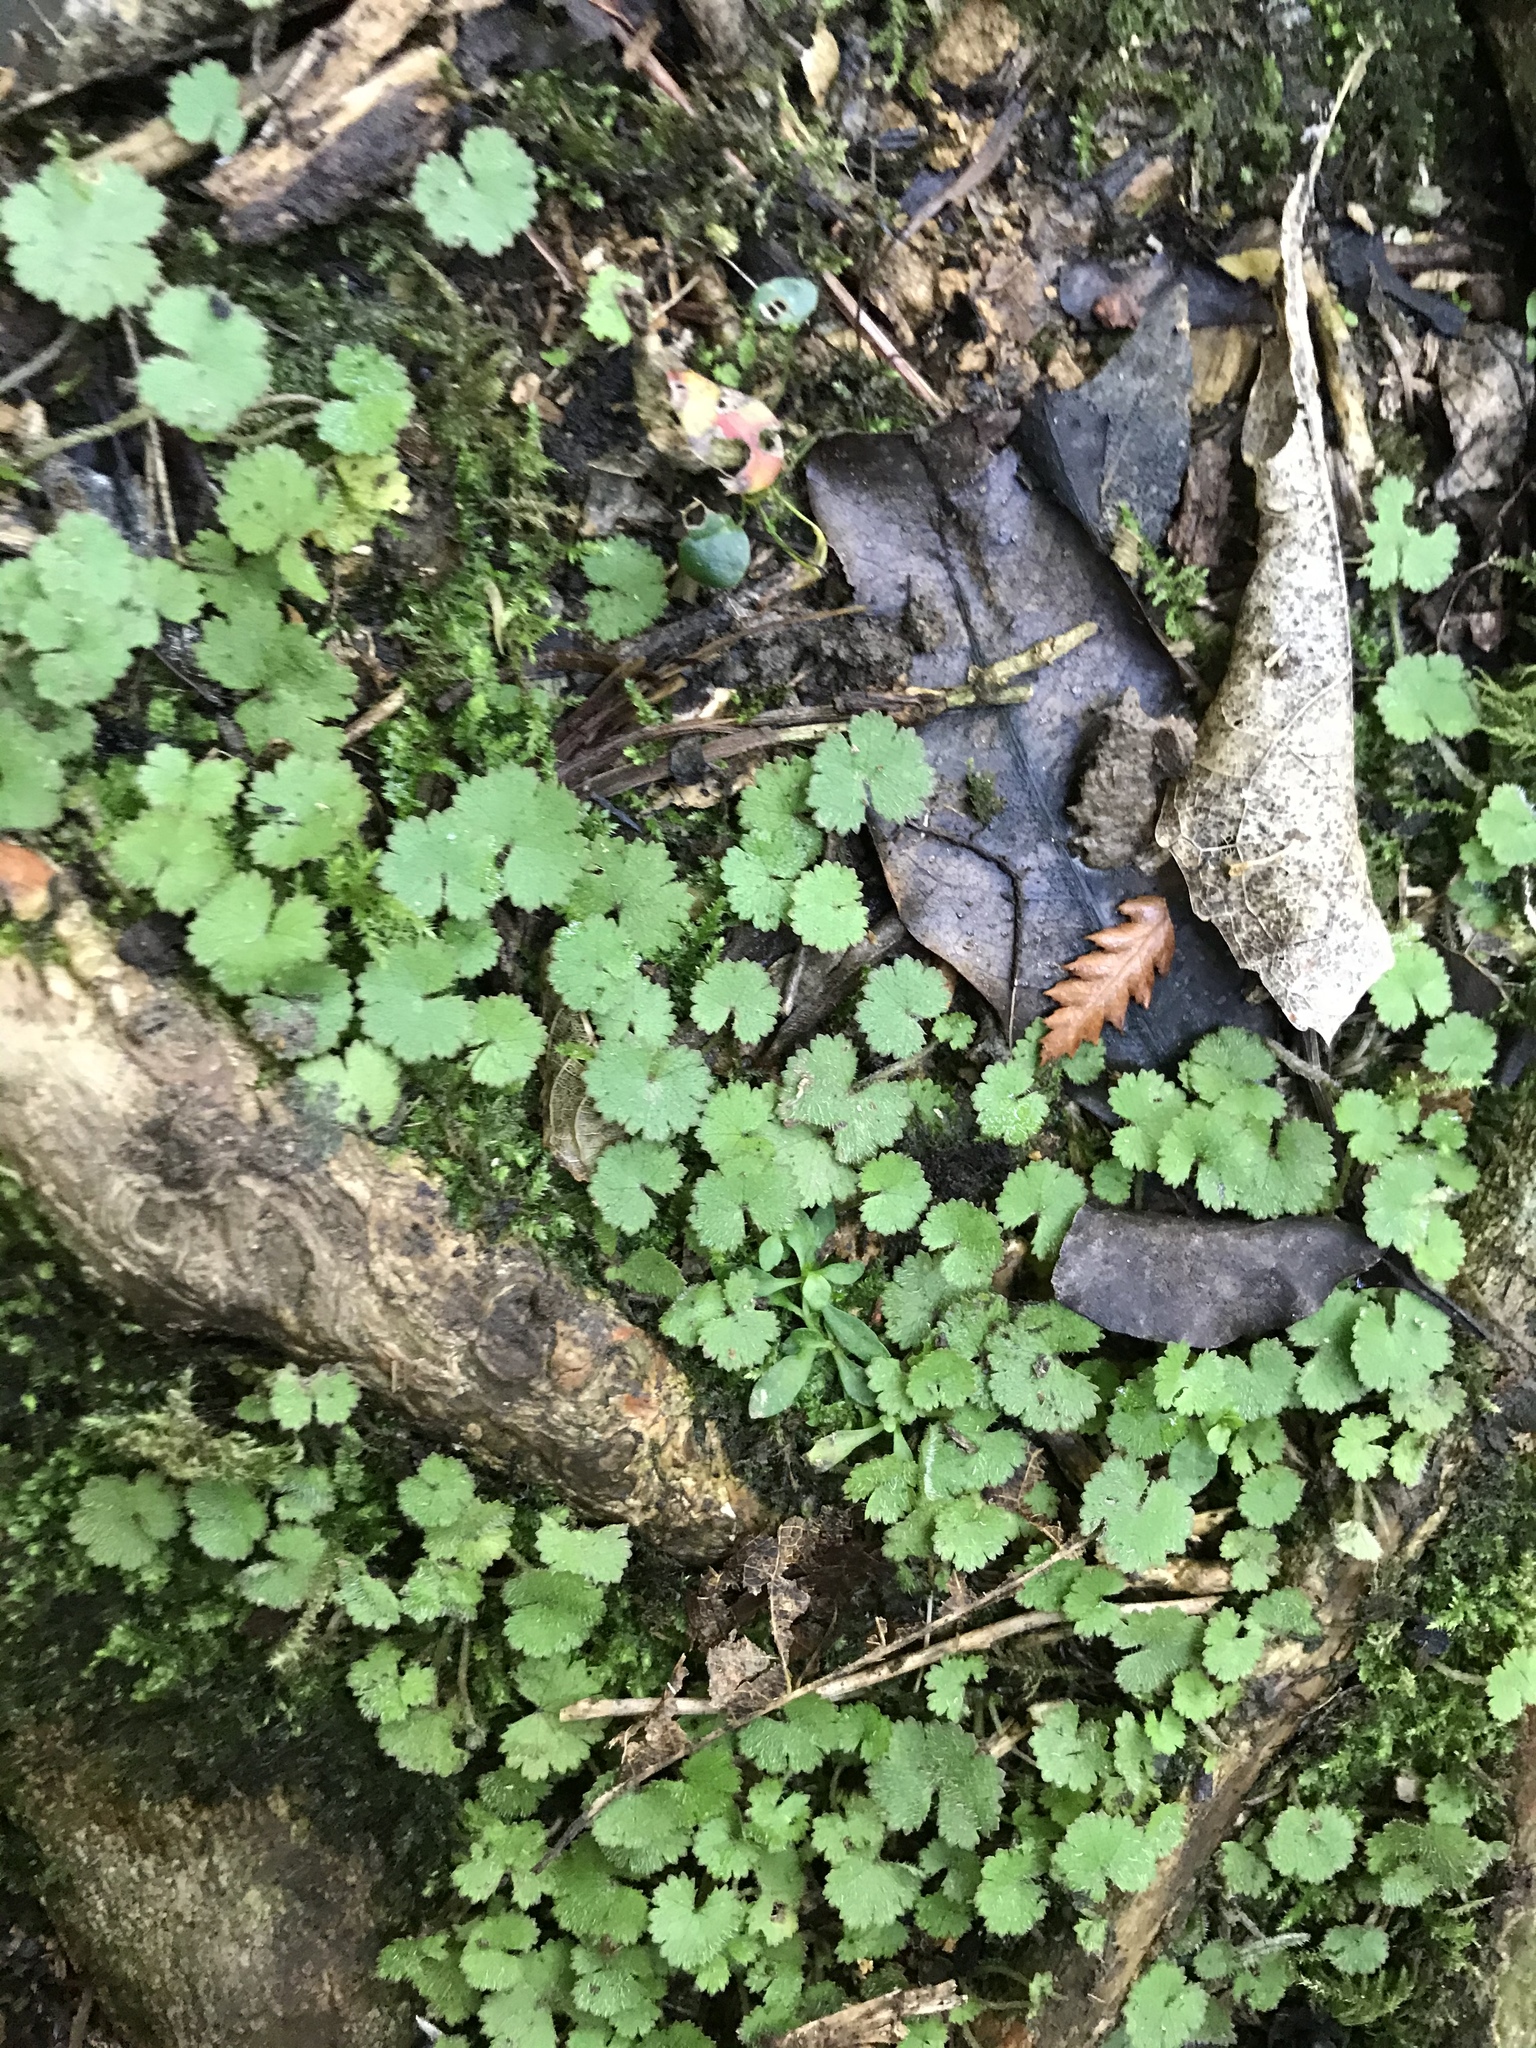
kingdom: Plantae
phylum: Tracheophyta
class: Magnoliopsida
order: Apiales
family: Araliaceae
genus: Hydrocotyle
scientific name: Hydrocotyle moschata
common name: Hairy pennywort
